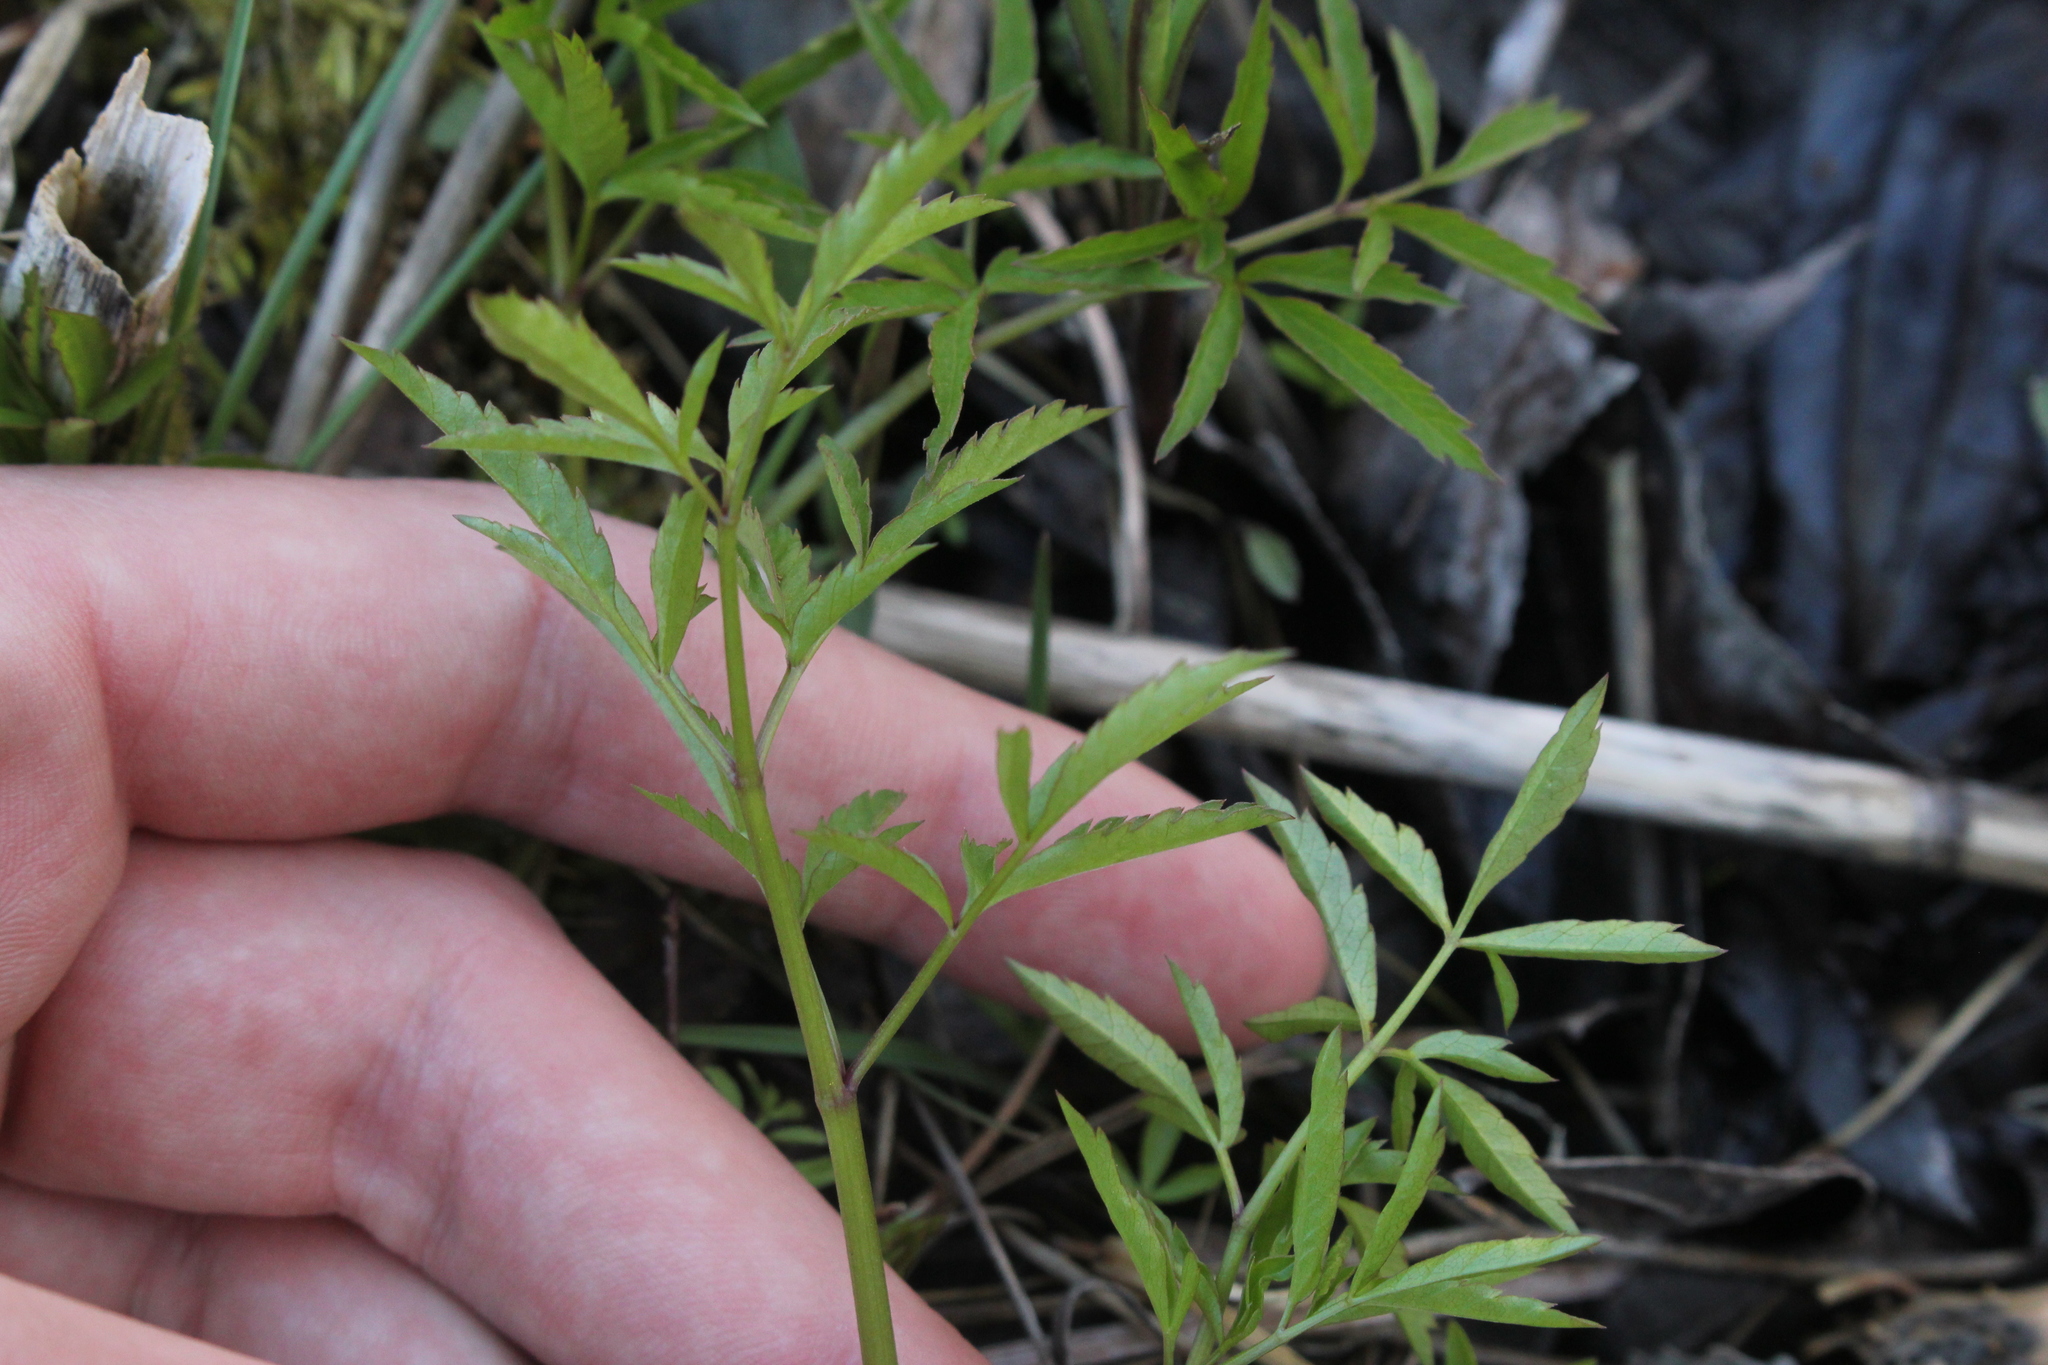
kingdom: Plantae
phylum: Tracheophyta
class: Magnoliopsida
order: Apiales
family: Apiaceae
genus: Cicuta
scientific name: Cicuta maculata
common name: Spotted cowbane
